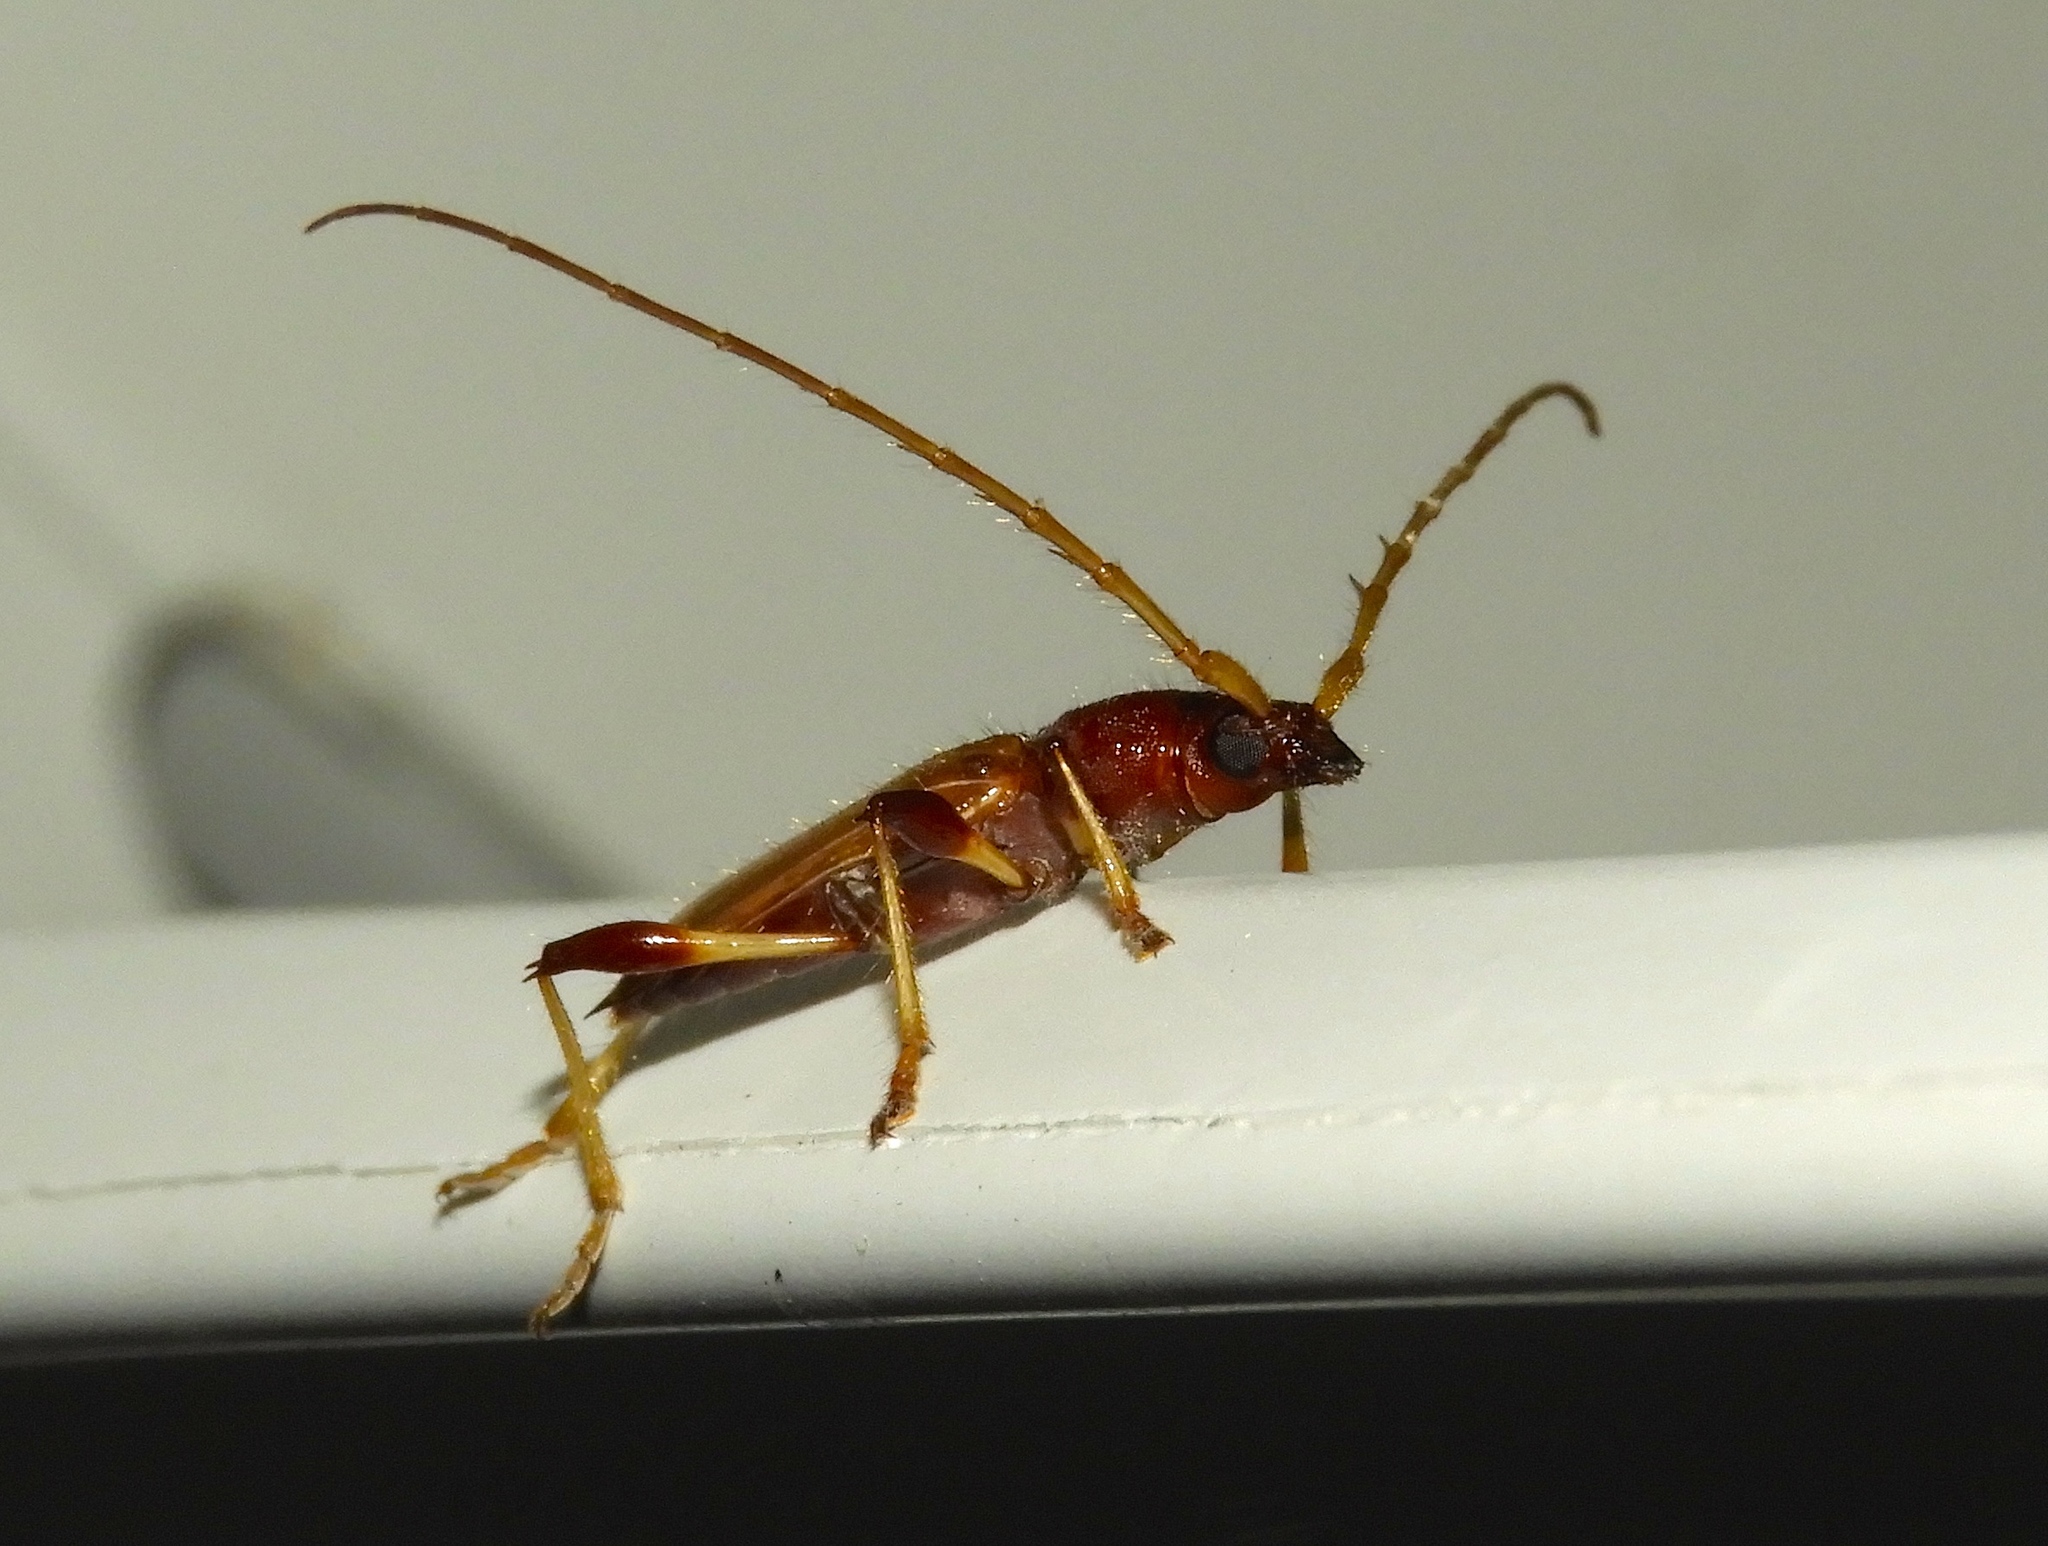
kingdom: Animalia
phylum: Arthropoda
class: Insecta
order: Coleoptera
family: Cerambycidae
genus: Stizocera
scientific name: Stizocera plicicollis
